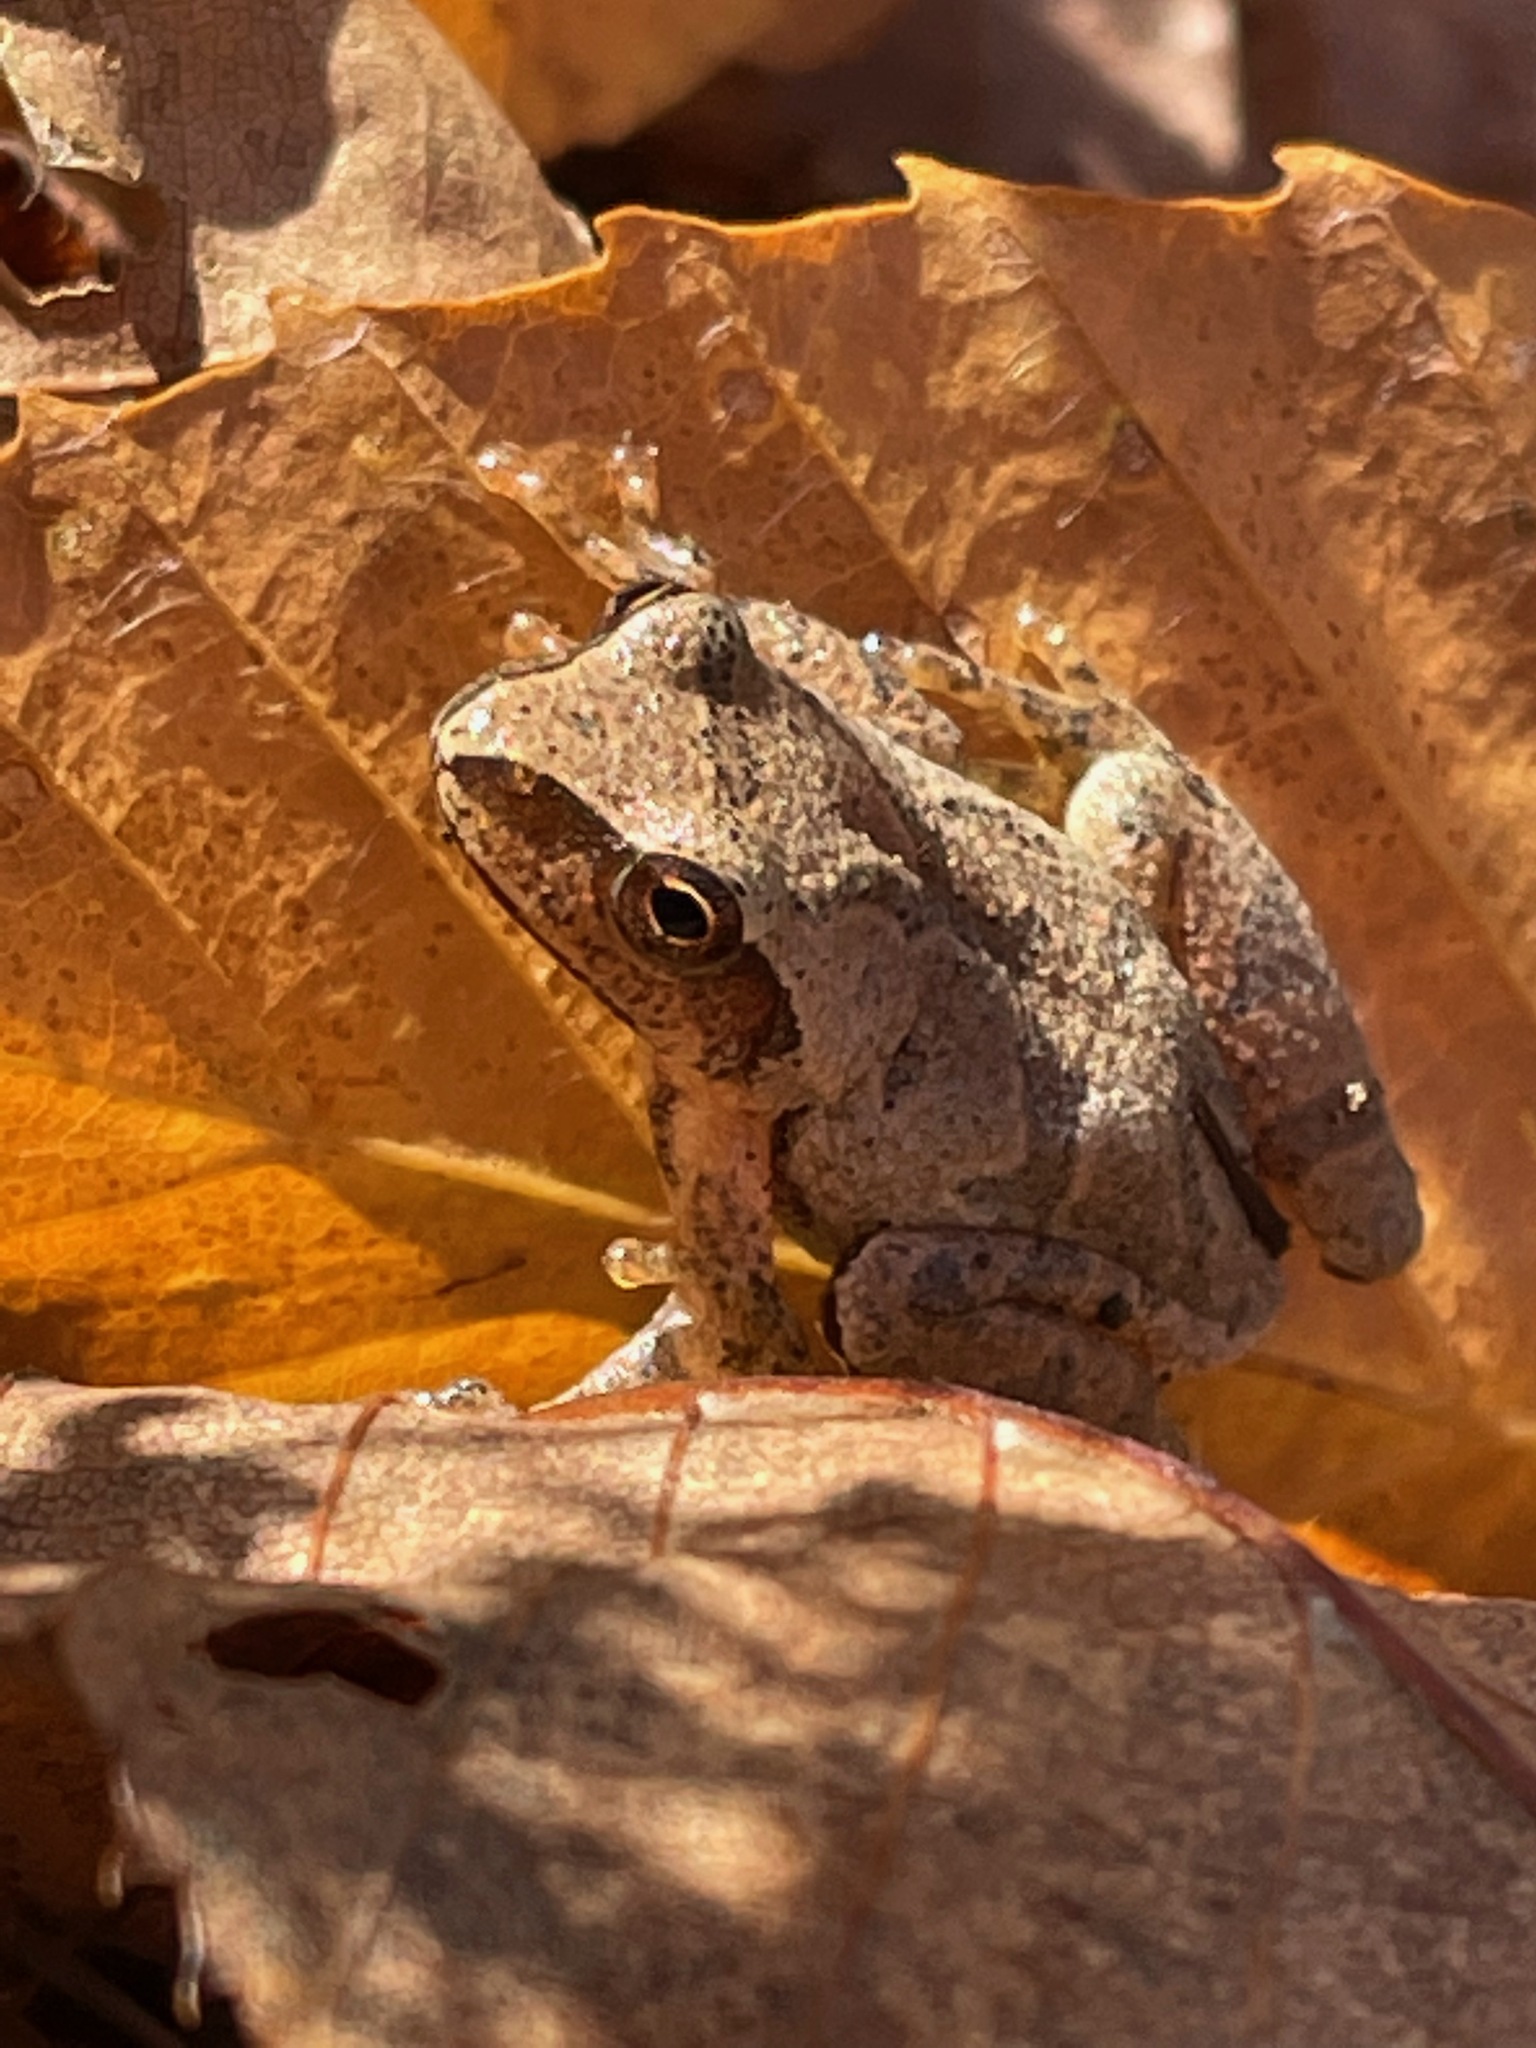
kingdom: Animalia
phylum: Chordata
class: Amphibia
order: Anura
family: Hylidae
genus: Pseudacris
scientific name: Pseudacris crucifer
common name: Spring peeper
